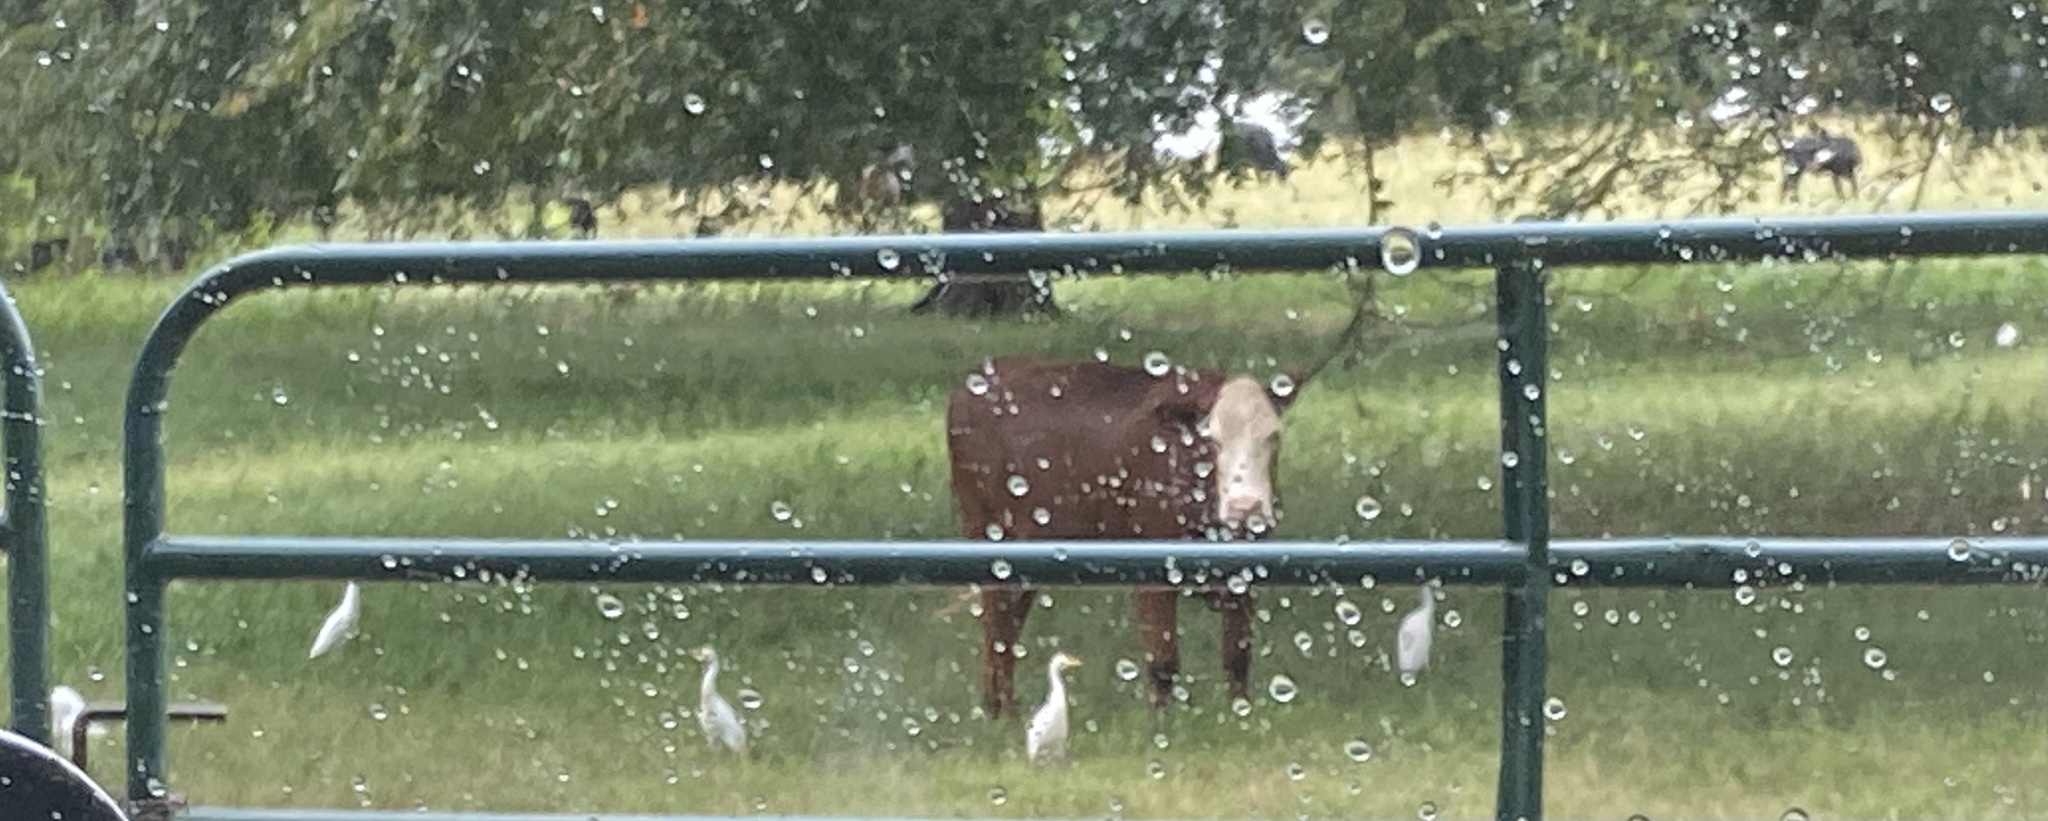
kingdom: Animalia
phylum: Chordata
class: Aves
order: Pelecaniformes
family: Ardeidae
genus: Bubulcus
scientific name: Bubulcus ibis
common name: Cattle egret
